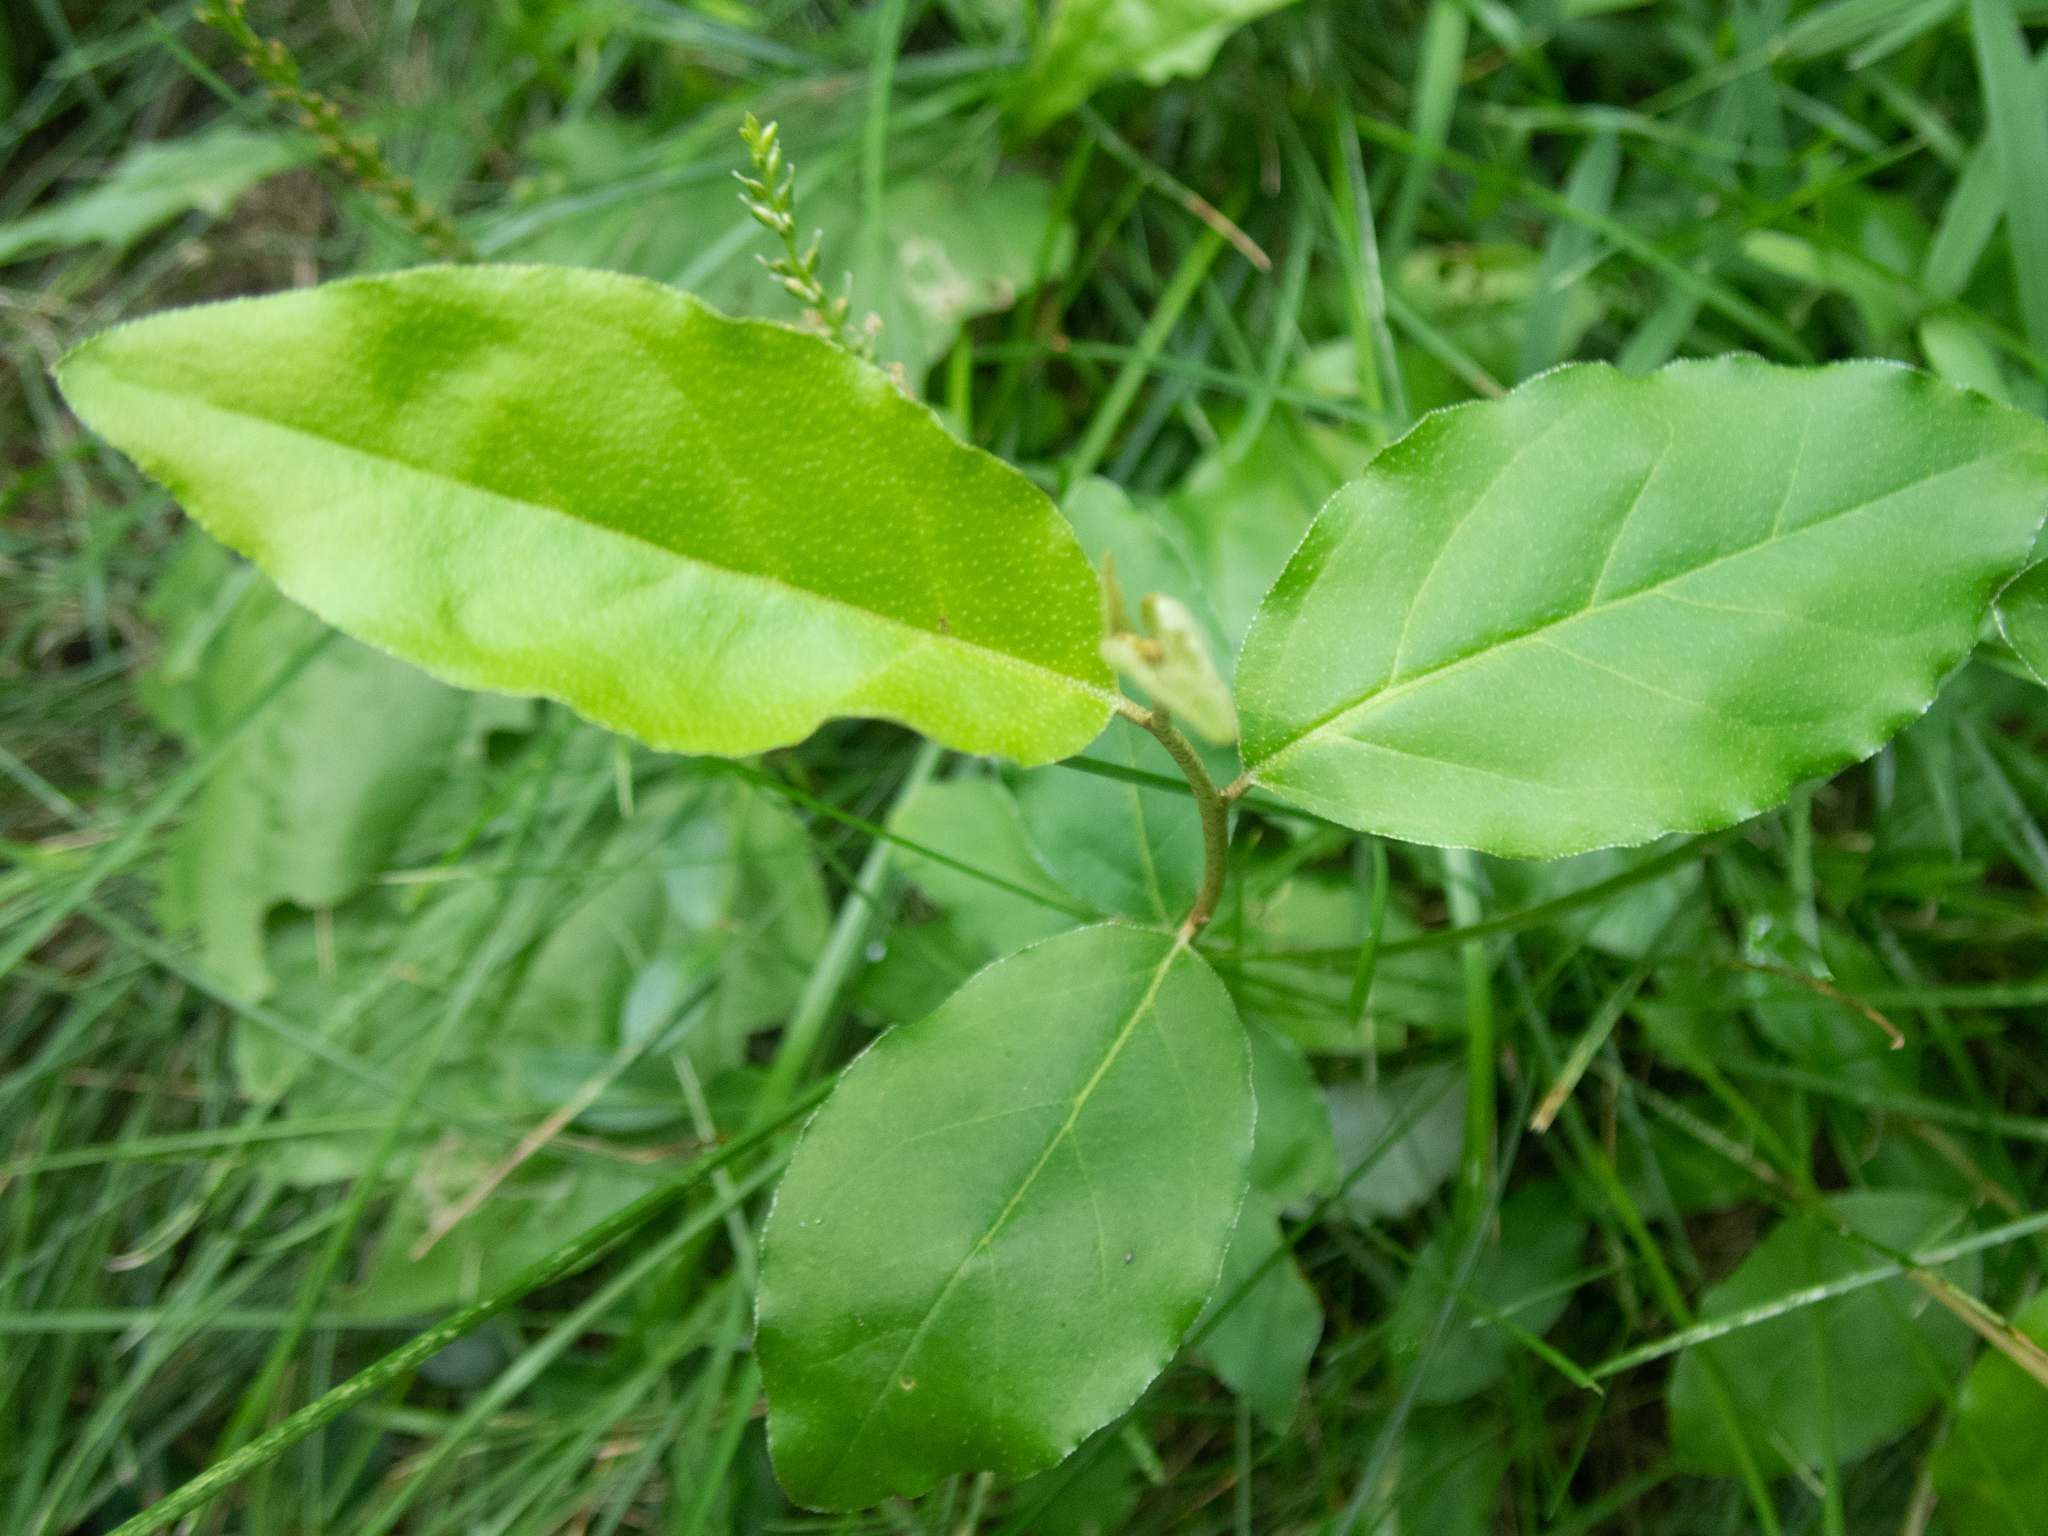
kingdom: Plantae
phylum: Tracheophyta
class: Magnoliopsida
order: Rosales
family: Elaeagnaceae
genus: Elaeagnus
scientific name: Elaeagnus umbellata
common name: Autumn olive
